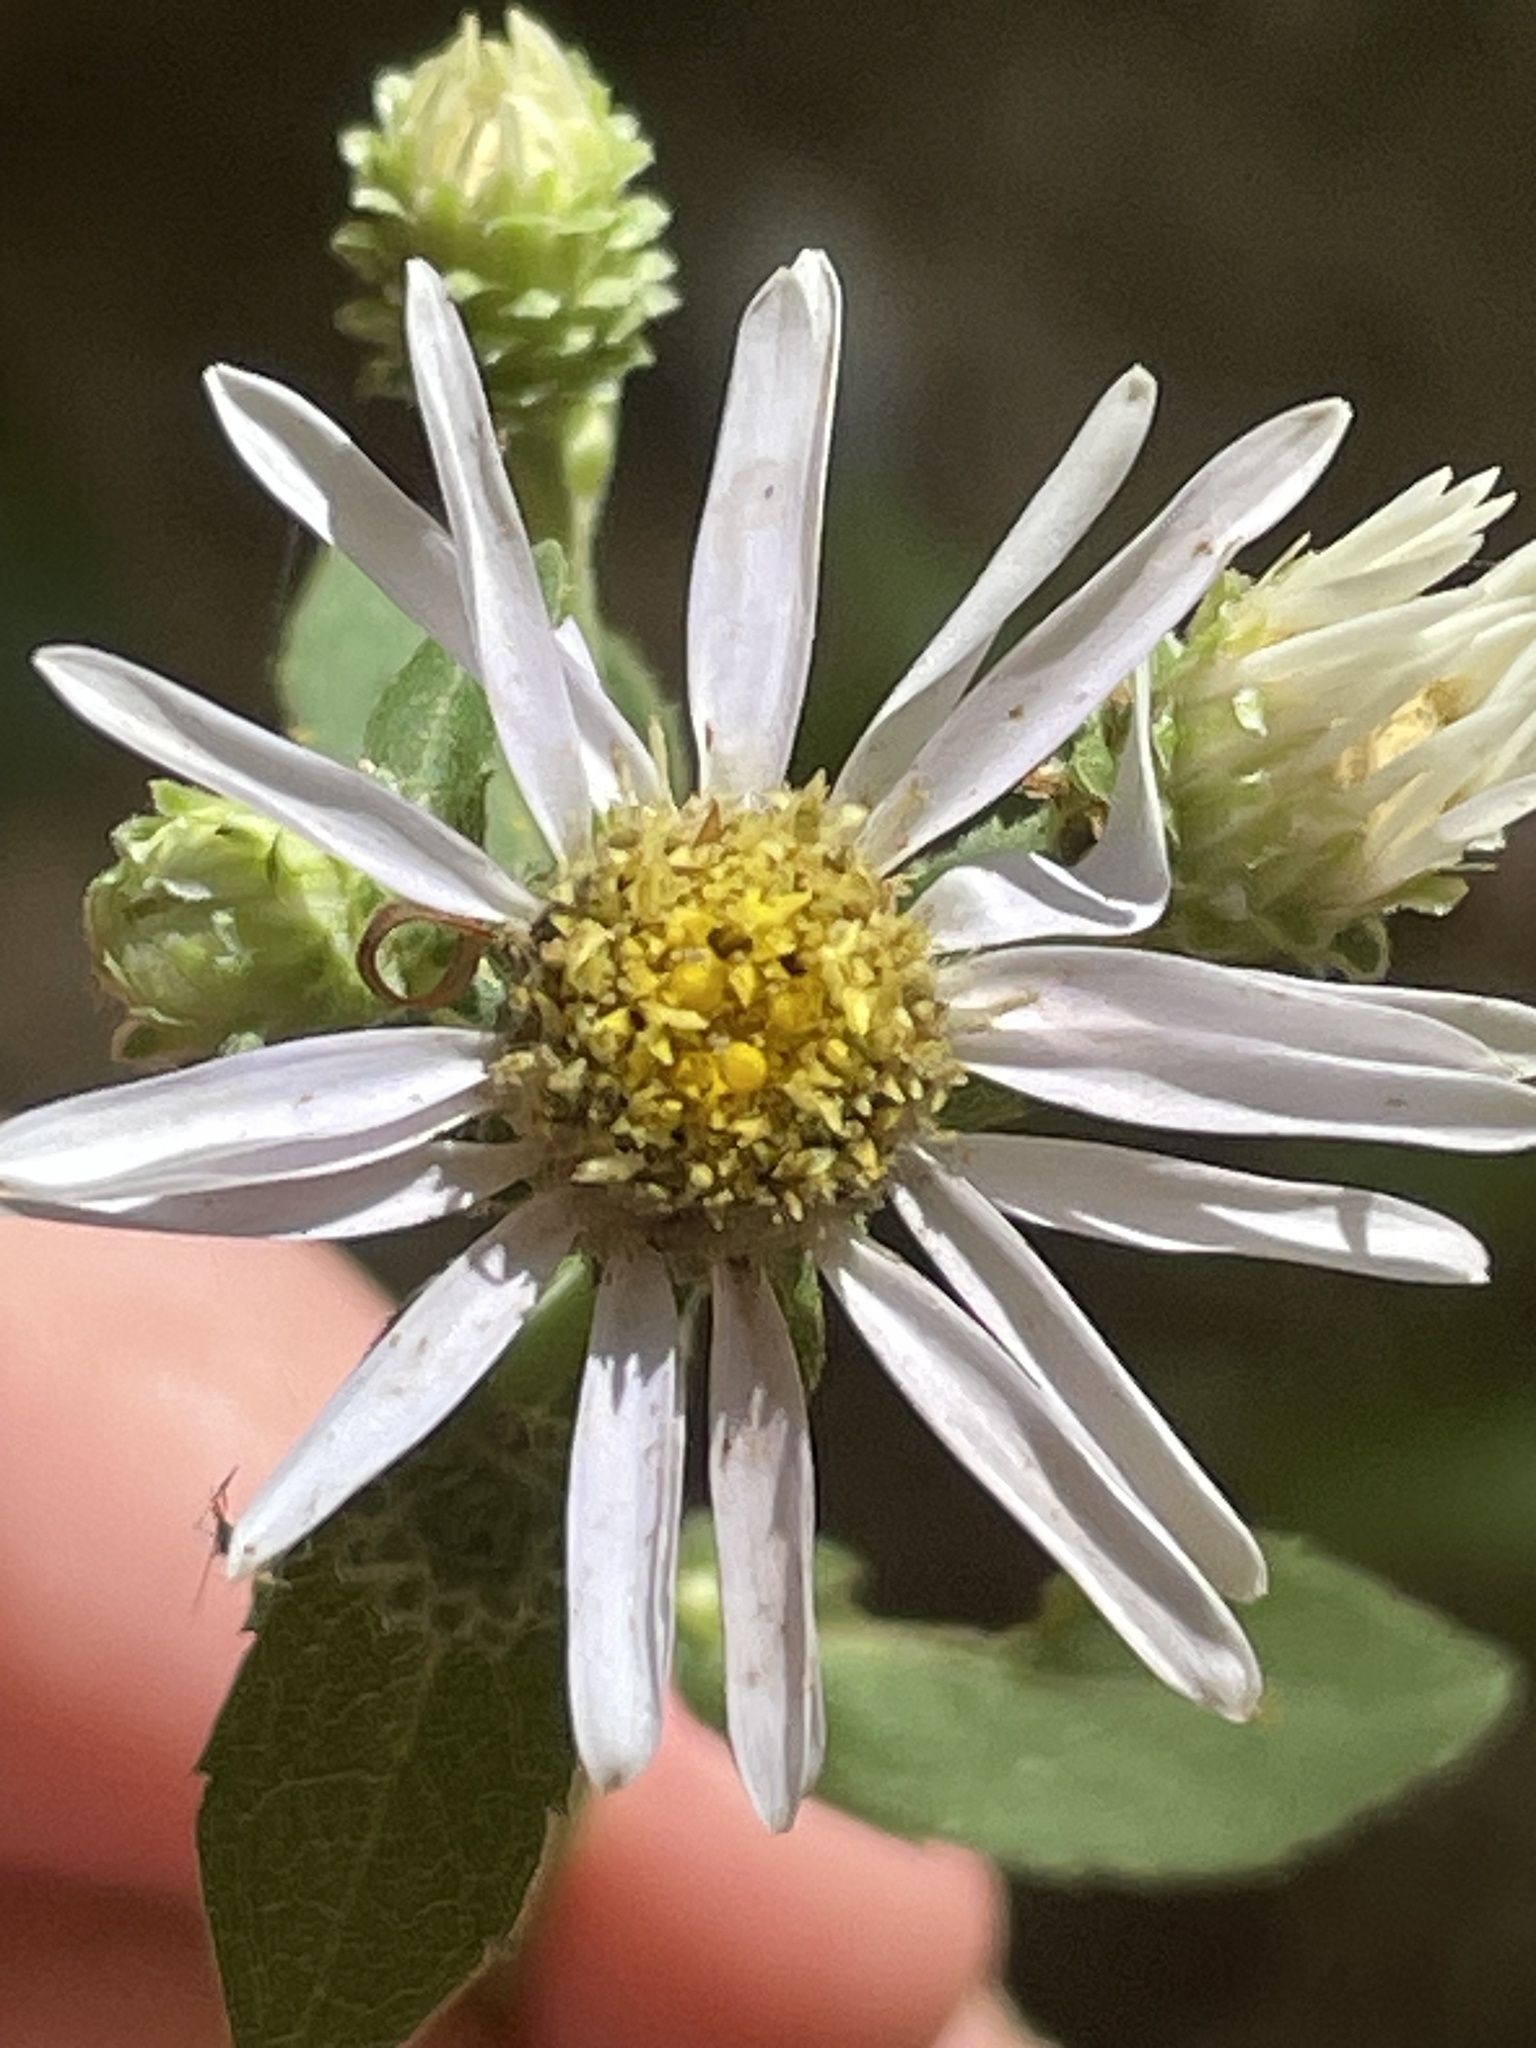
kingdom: Plantae
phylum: Tracheophyta
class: Magnoliopsida
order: Asterales
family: Asteraceae
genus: Eurybia
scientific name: Eurybia mirabilis
